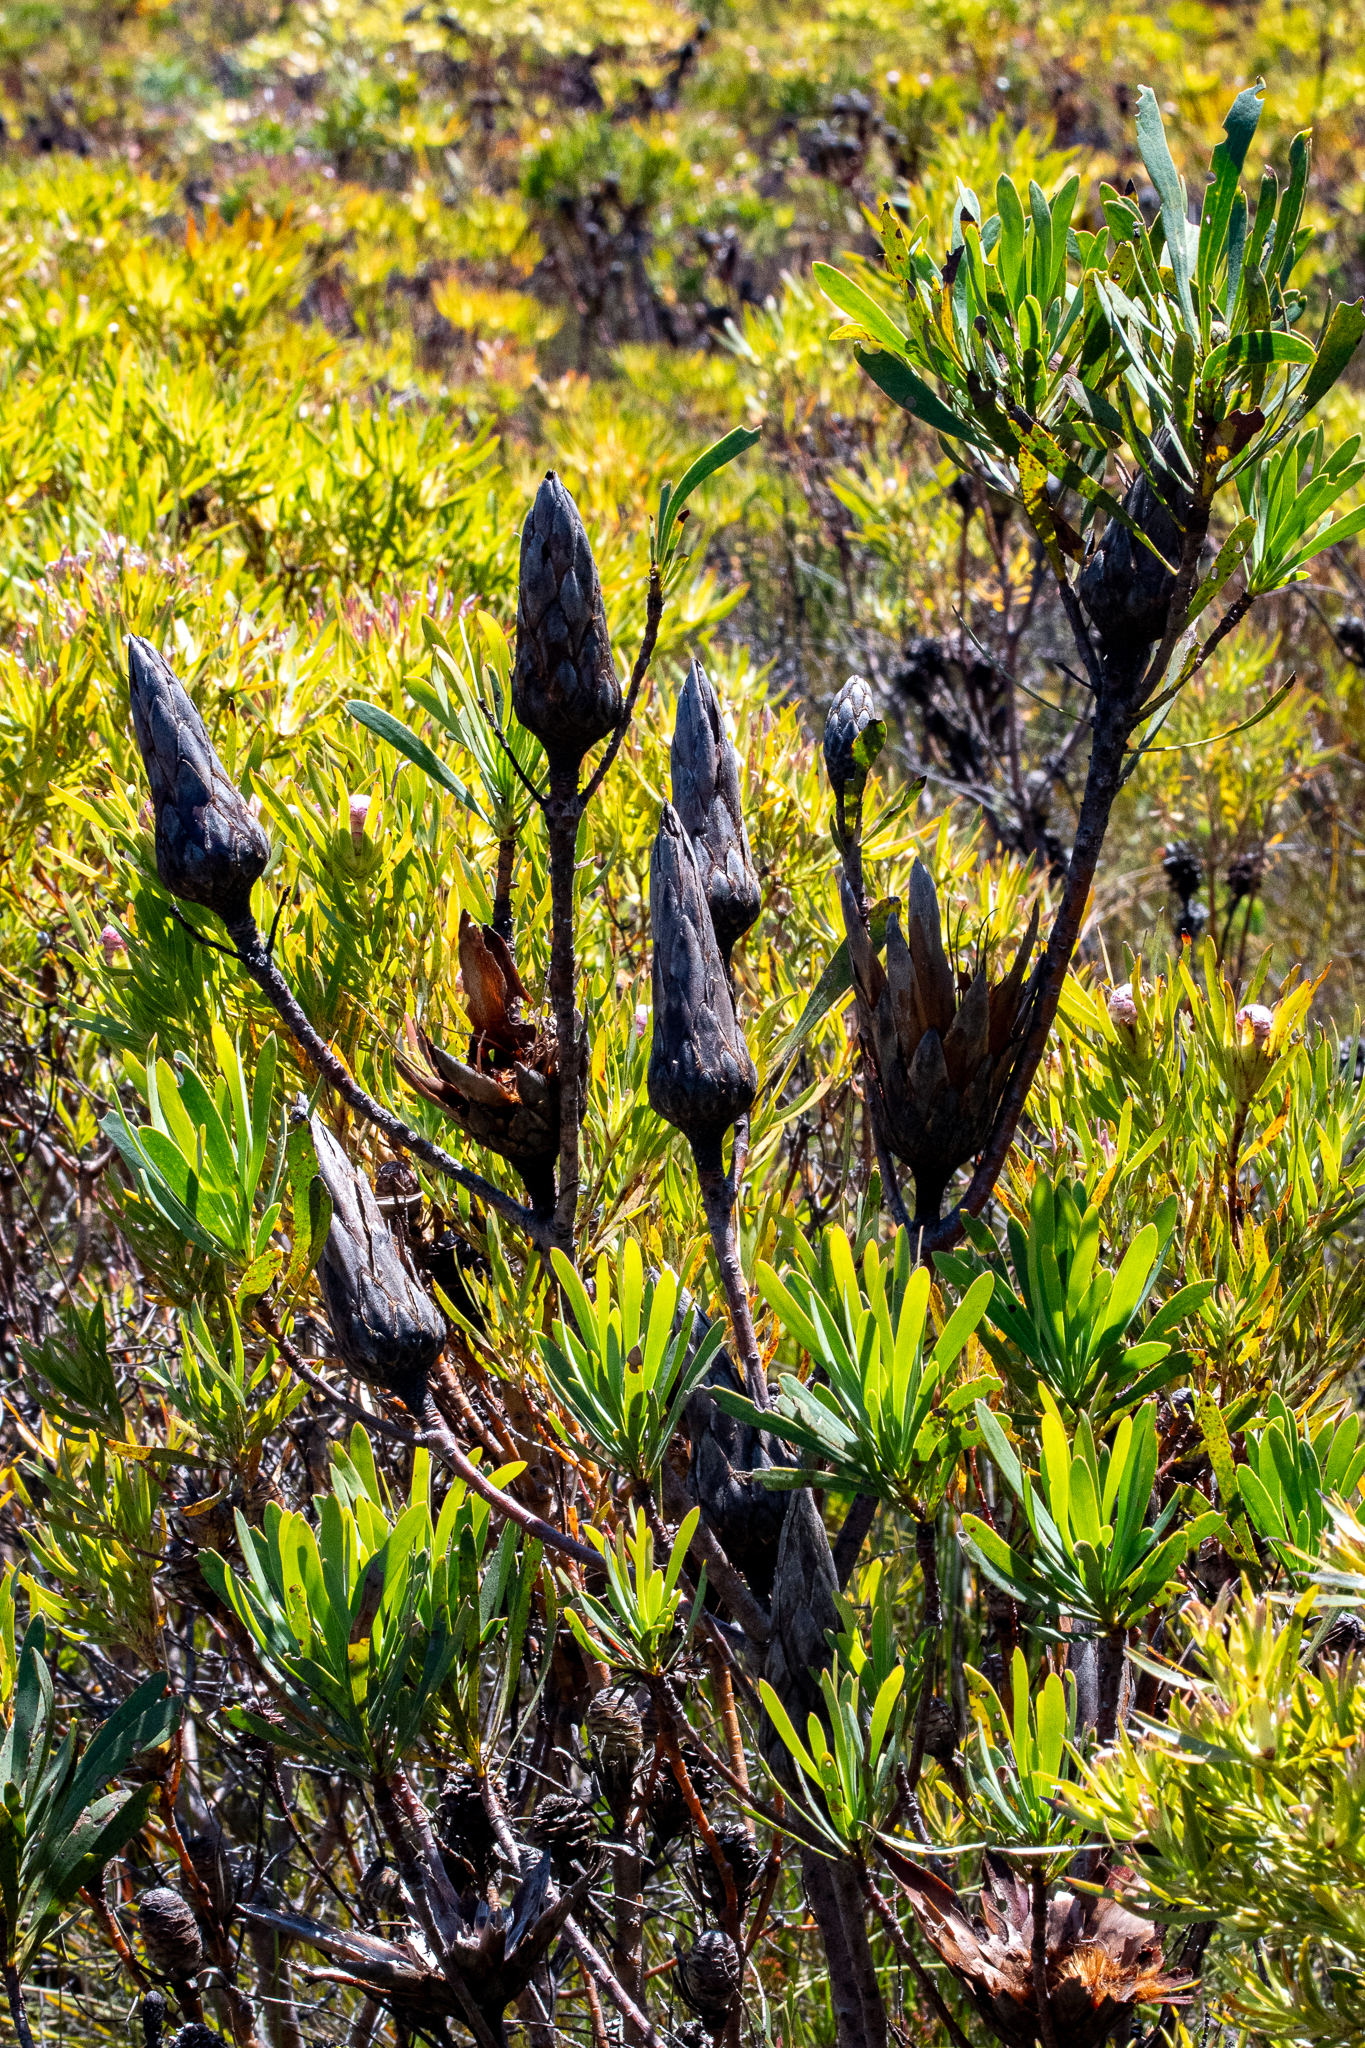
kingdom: Plantae
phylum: Tracheophyta
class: Magnoliopsida
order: Proteales
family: Proteaceae
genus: Protea
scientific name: Protea repens
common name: Sugarbush
